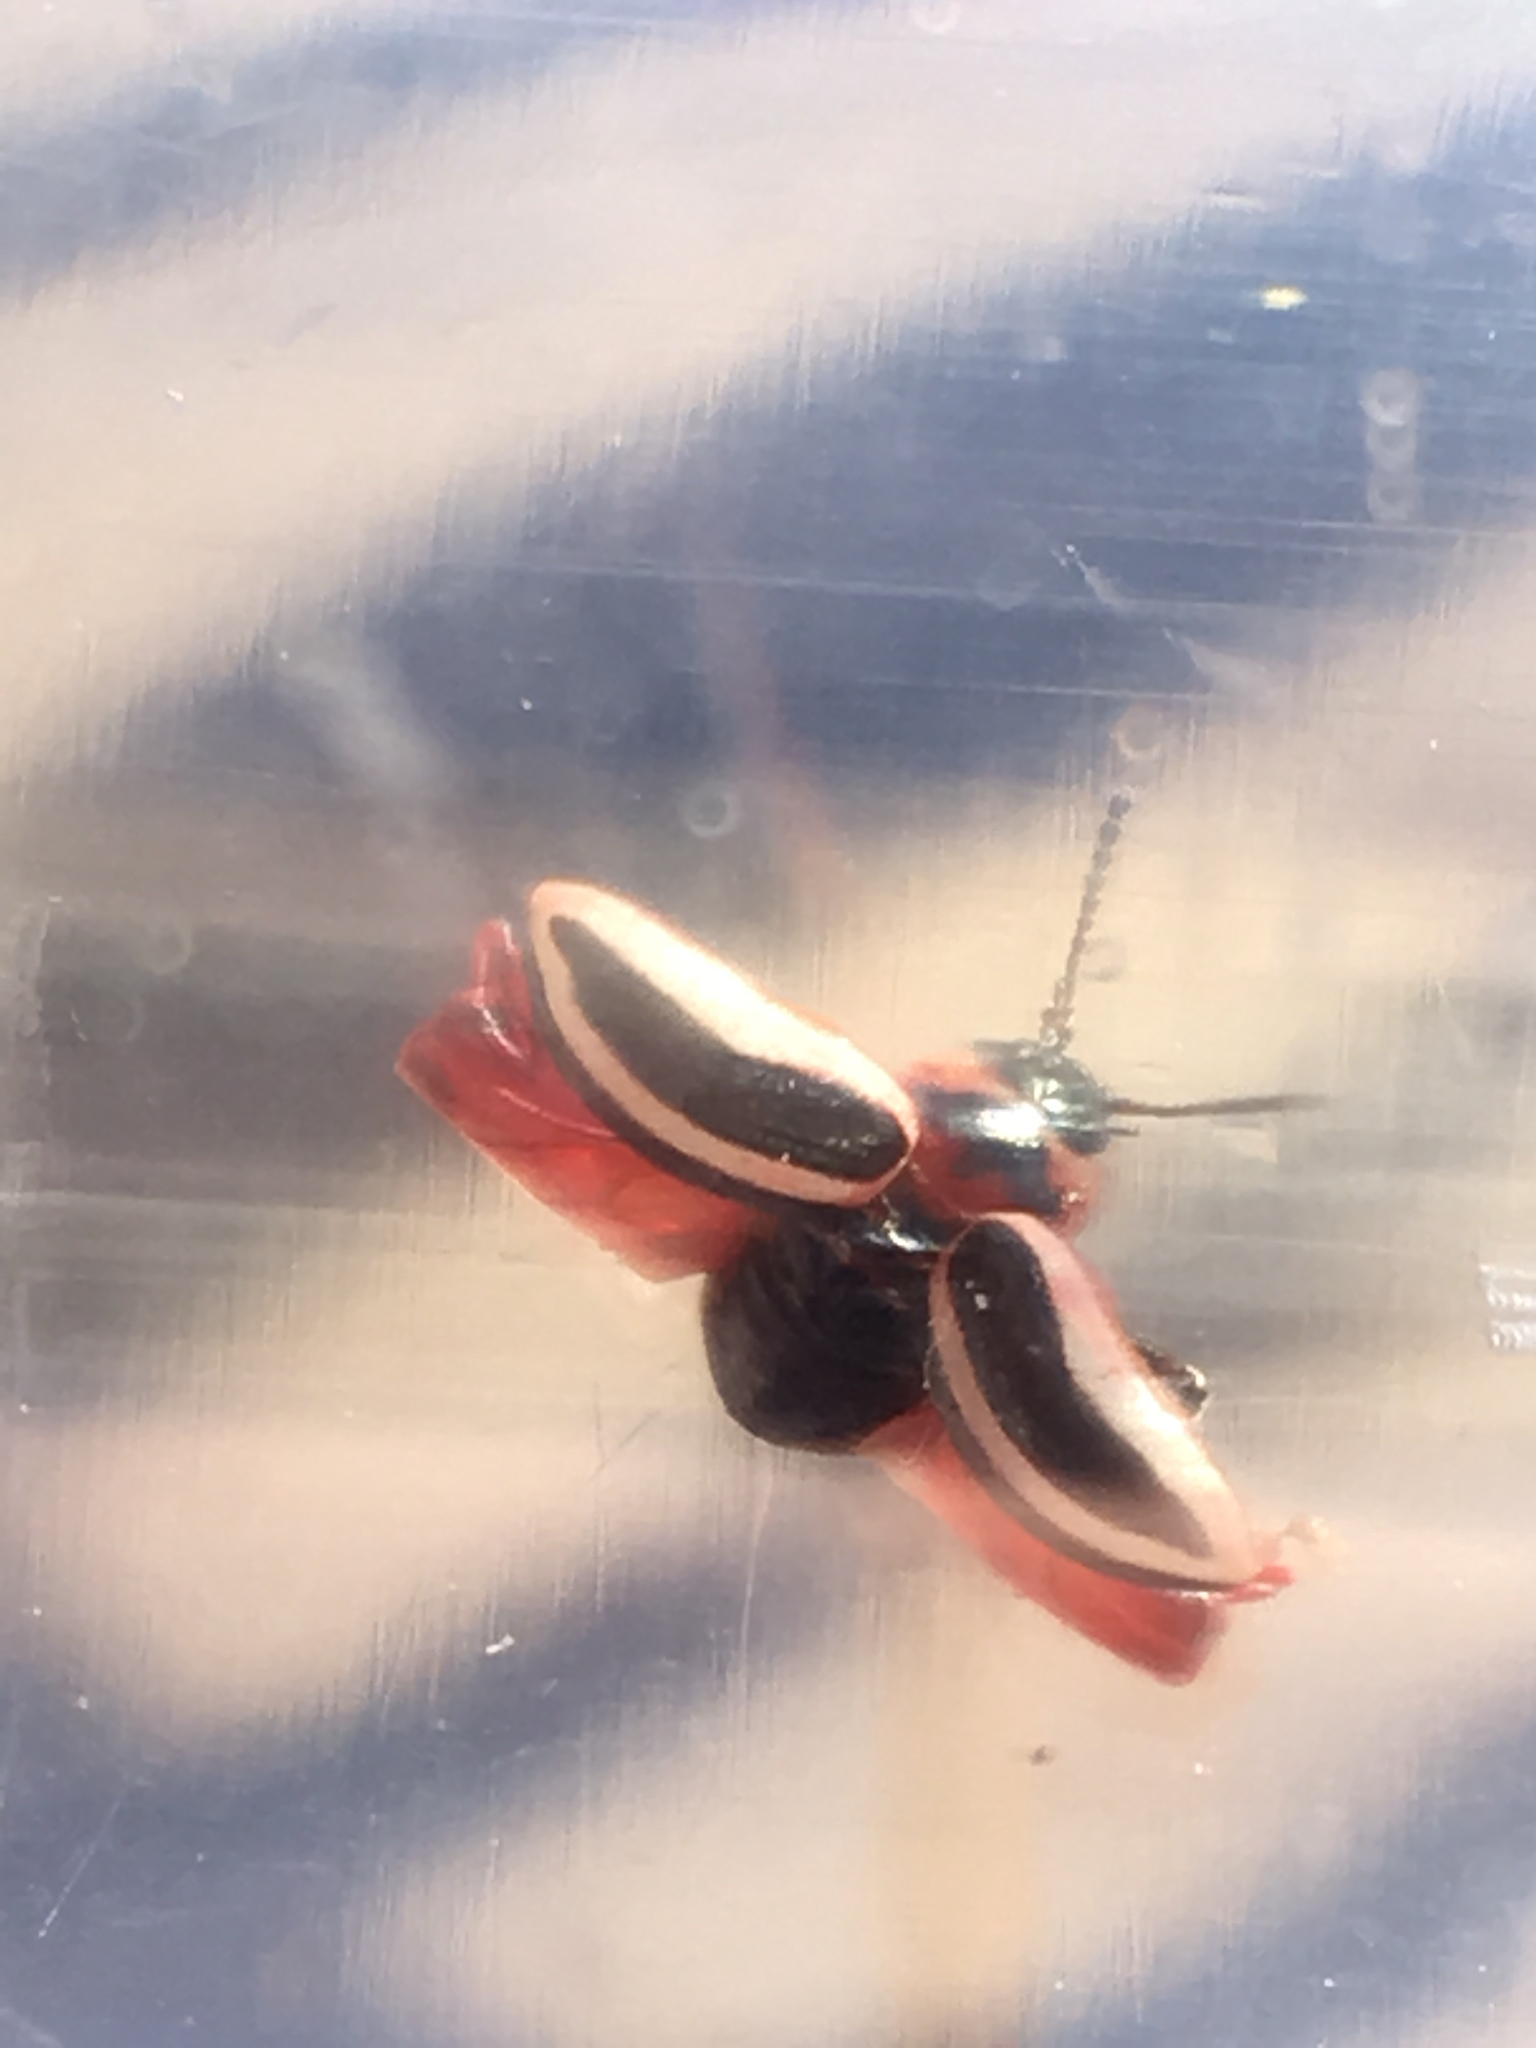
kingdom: Animalia
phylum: Arthropoda
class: Insecta
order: Coleoptera
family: Chrysomelidae
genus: Calligrapha
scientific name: Calligrapha californica
